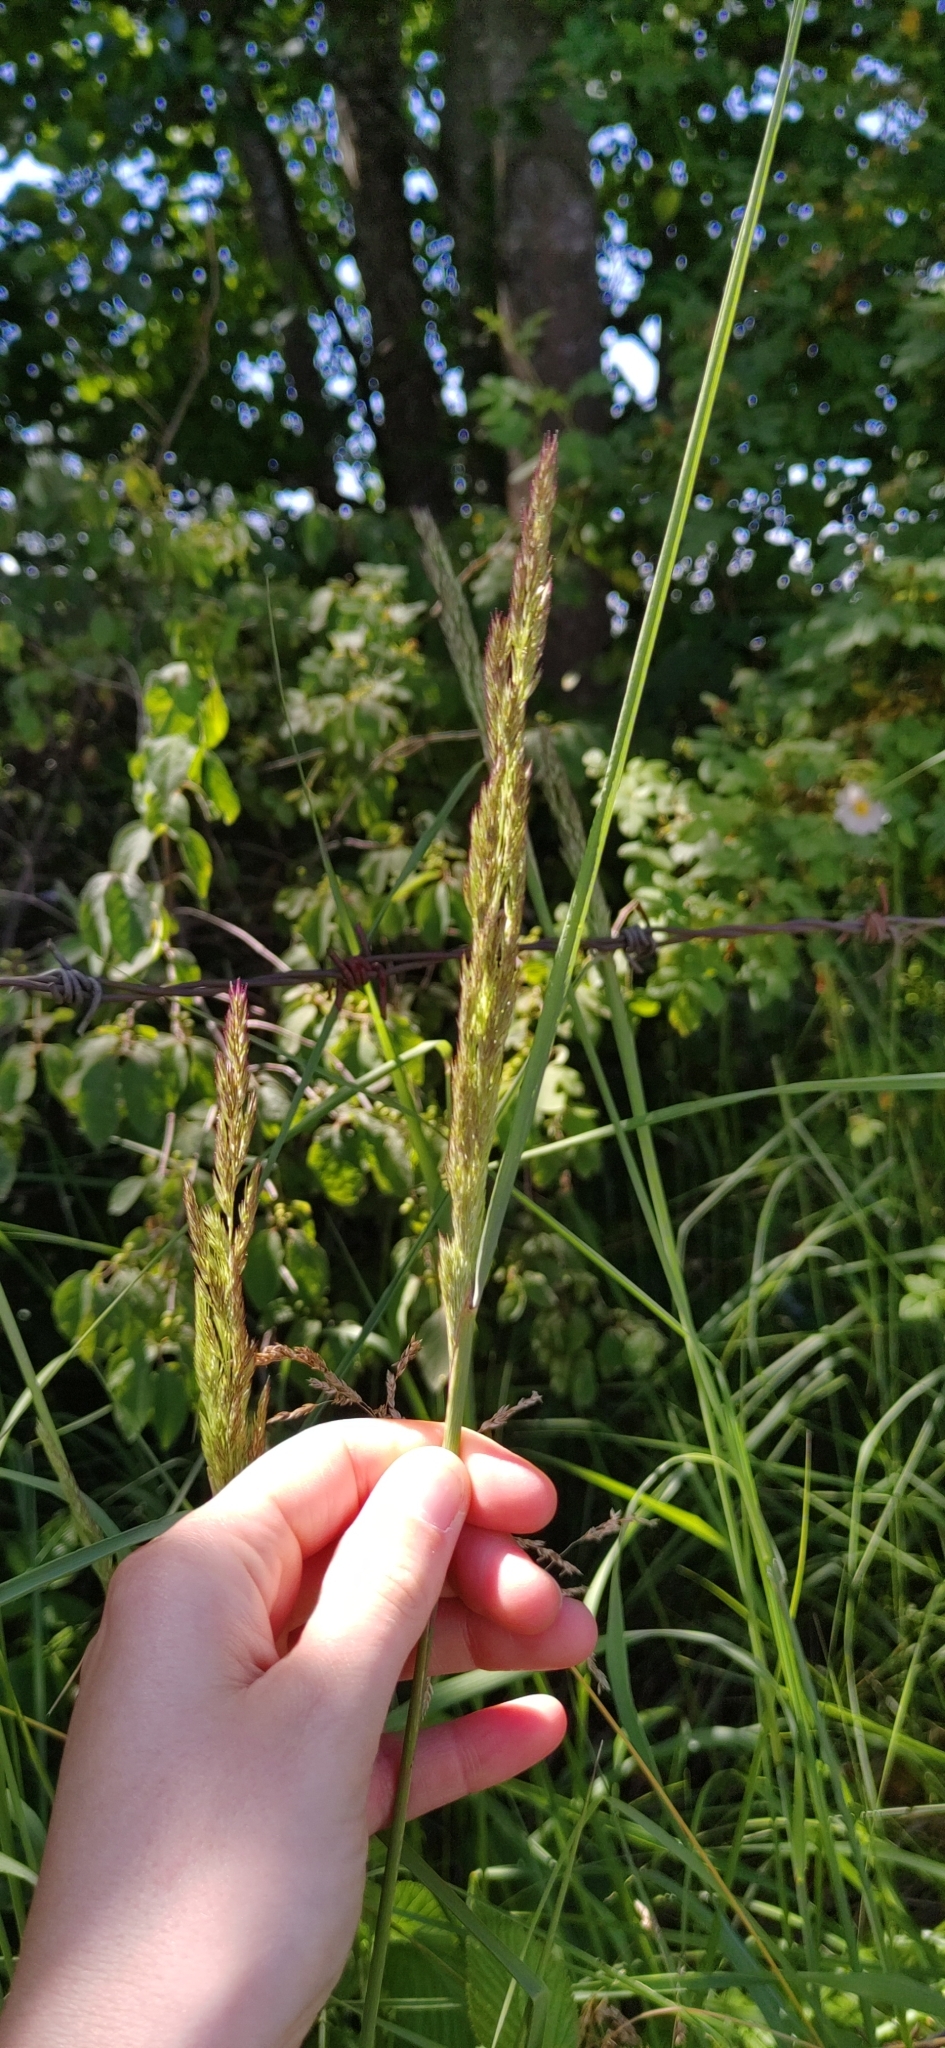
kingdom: Plantae
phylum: Tracheophyta
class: Liliopsida
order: Poales
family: Poaceae
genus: Calamagrostis
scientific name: Calamagrostis epigejos
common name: Wood small-reed
